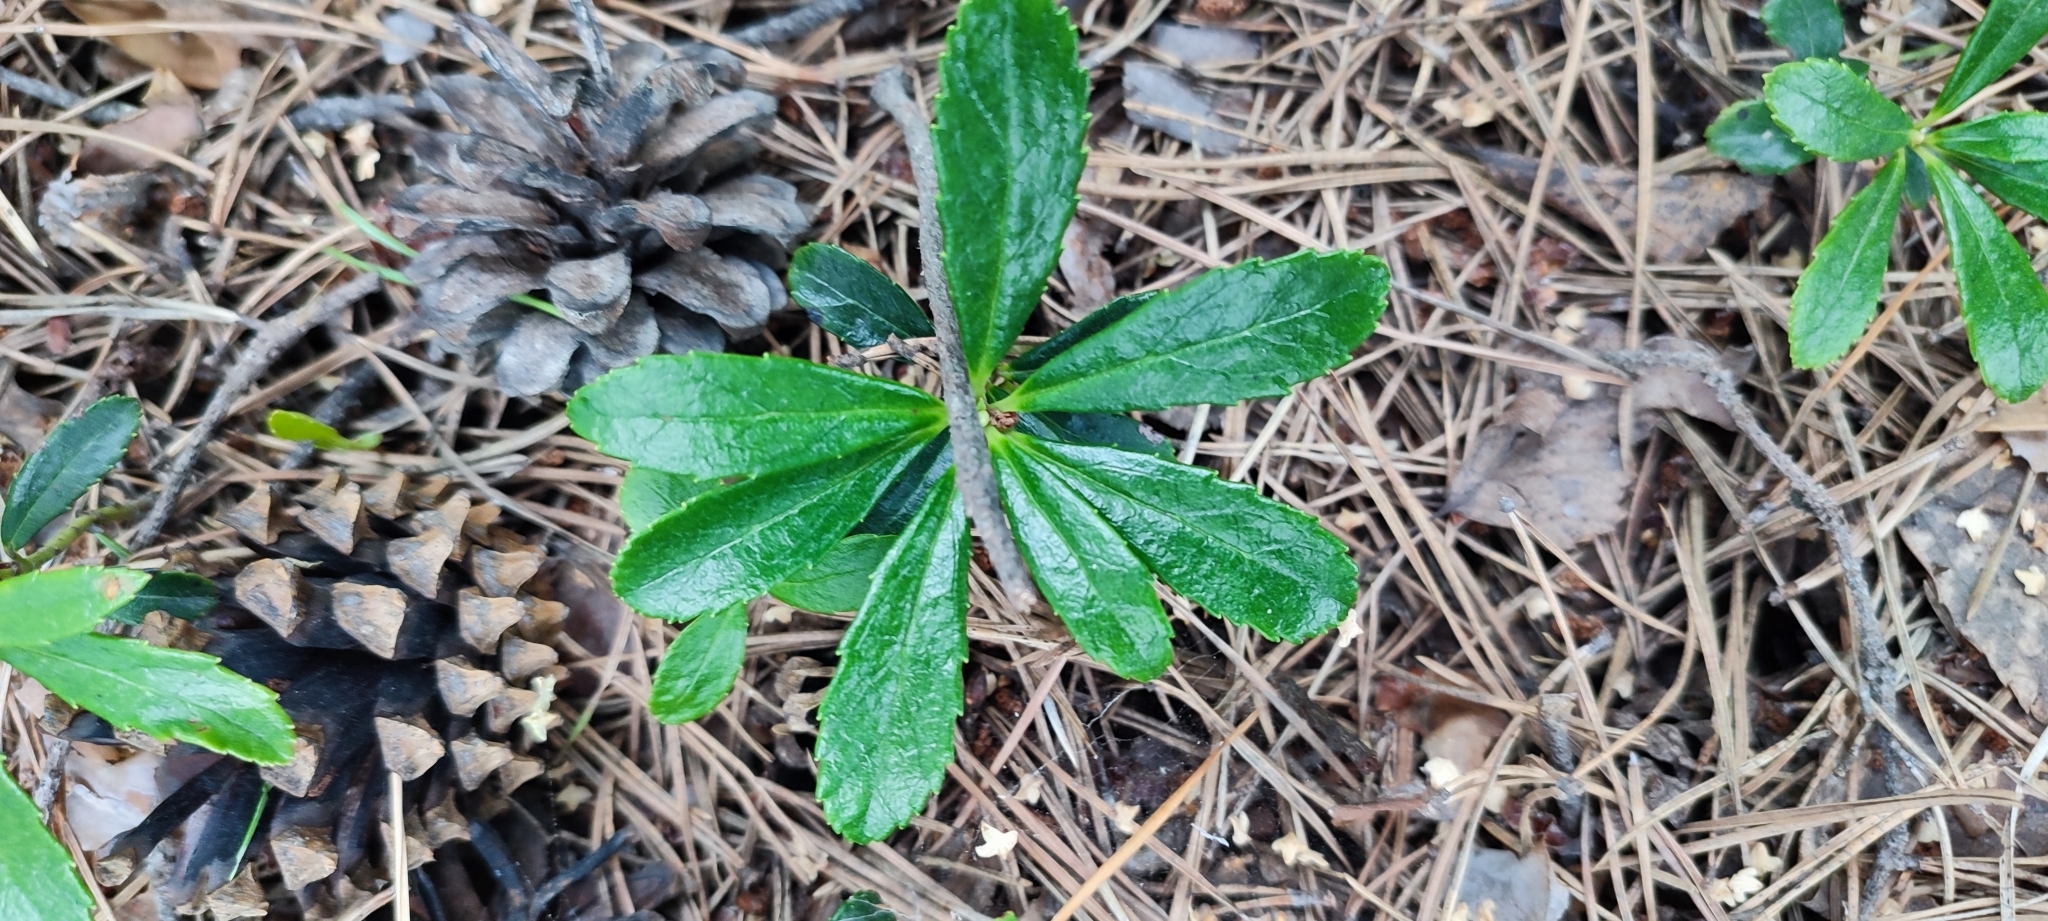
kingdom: Plantae
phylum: Tracheophyta
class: Magnoliopsida
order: Ericales
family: Ericaceae
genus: Chimaphila
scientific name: Chimaphila umbellata
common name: Pipsissewa
